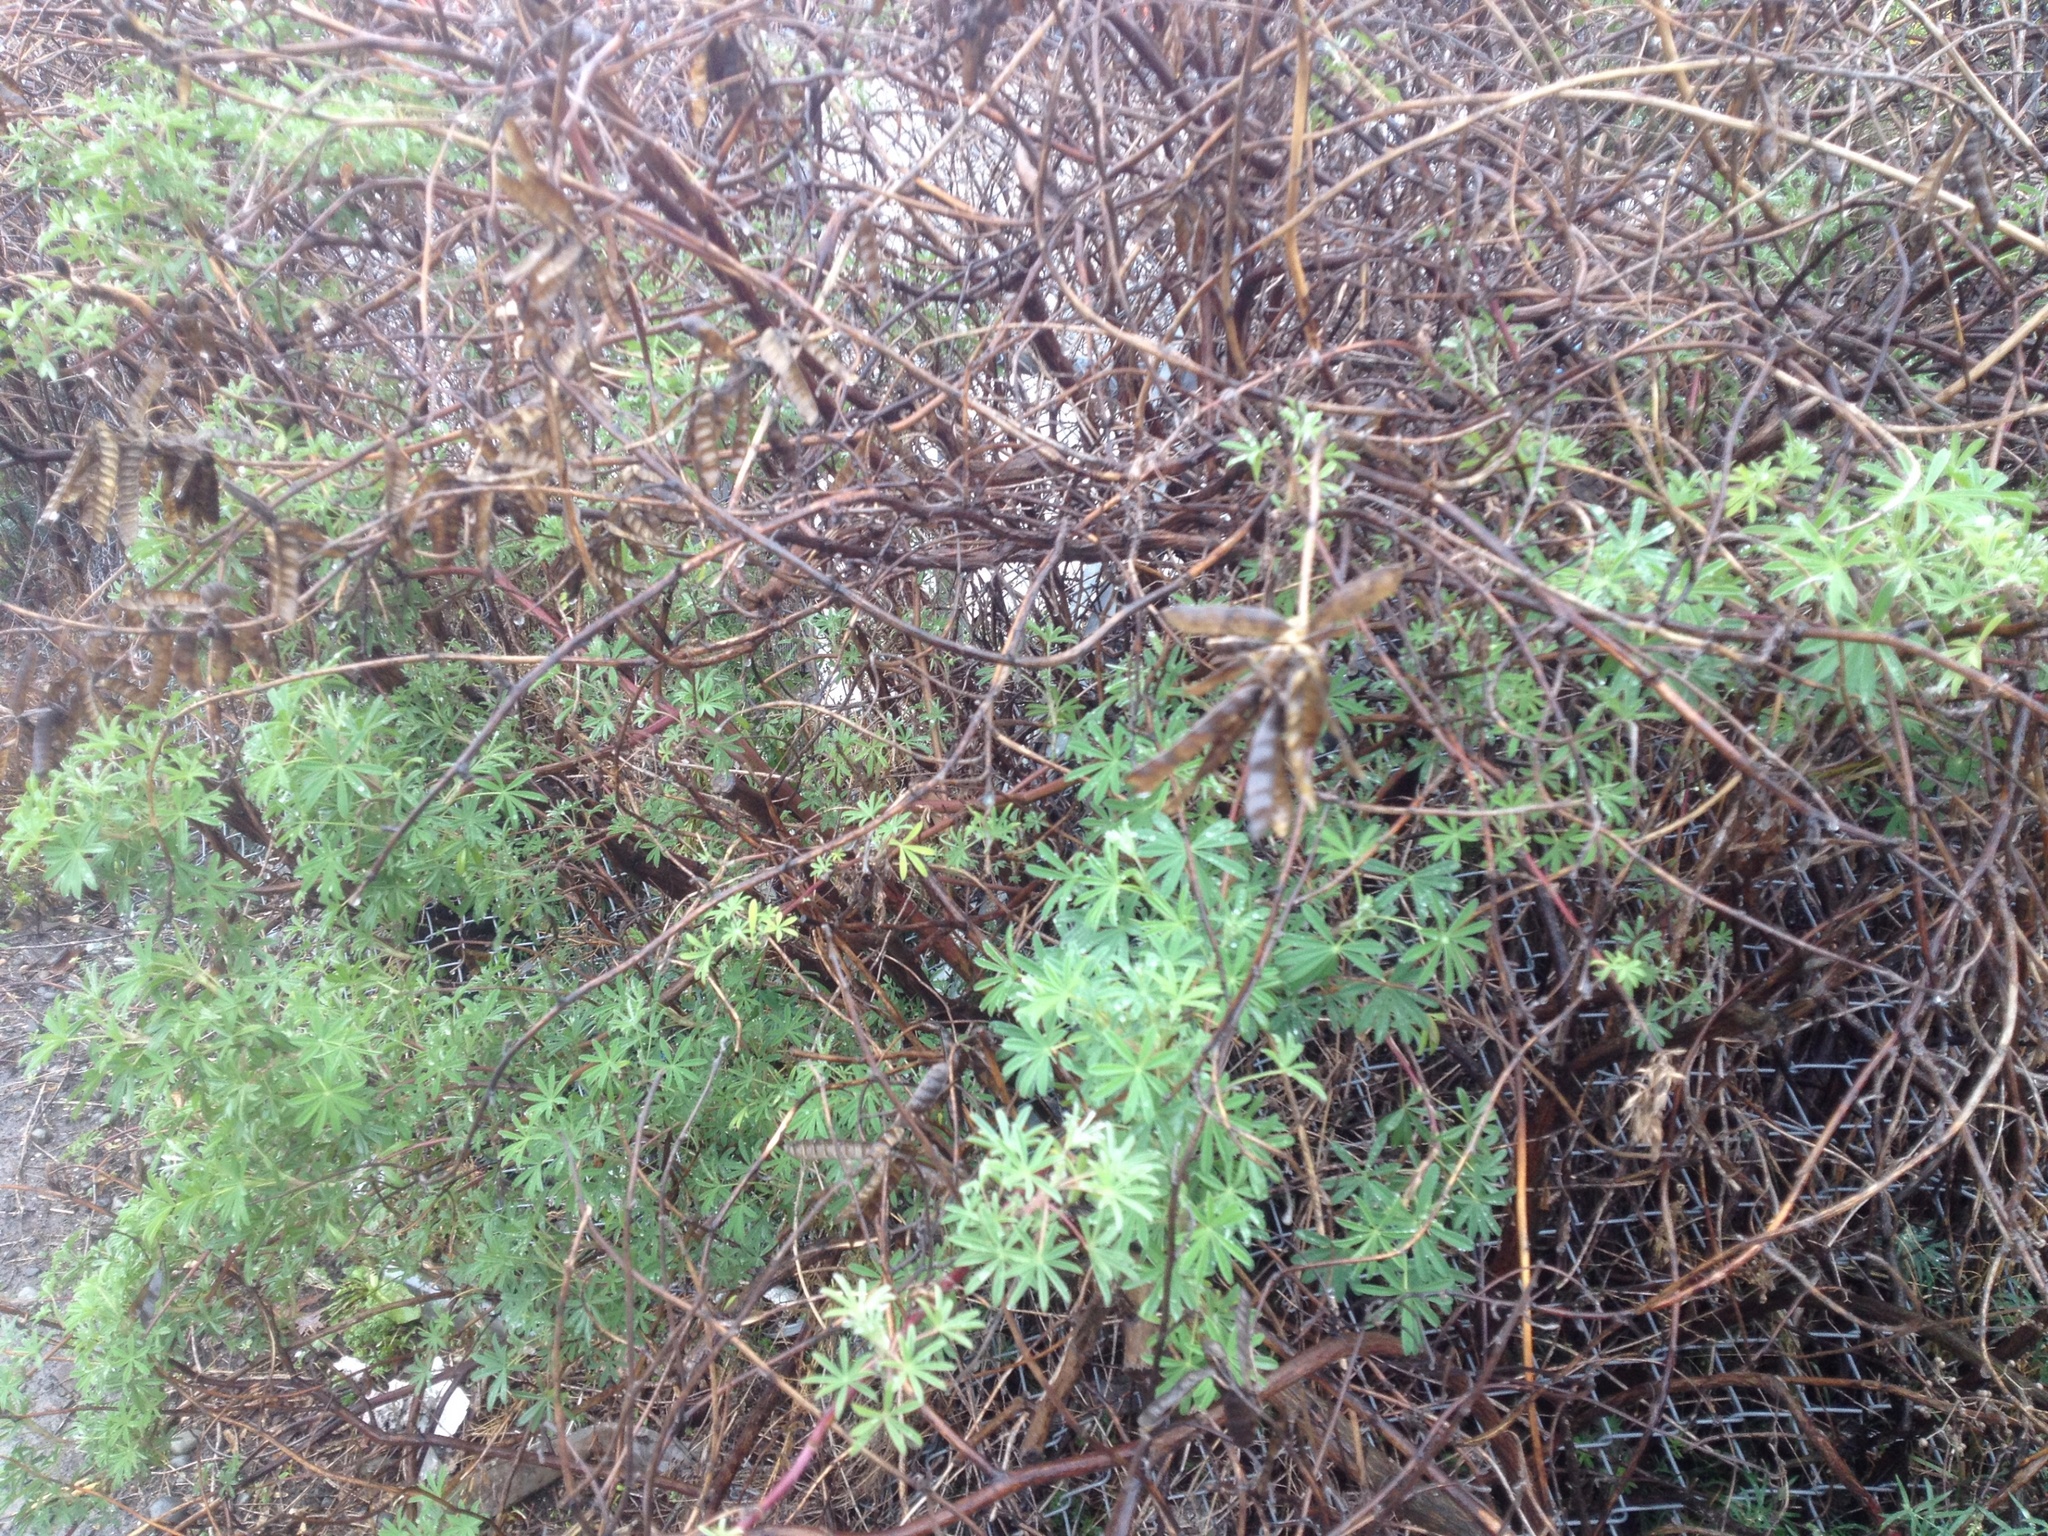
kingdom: Plantae
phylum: Tracheophyta
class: Magnoliopsida
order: Fabales
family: Fabaceae
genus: Lupinus
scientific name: Lupinus arboreus
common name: Yellow bush lupine
